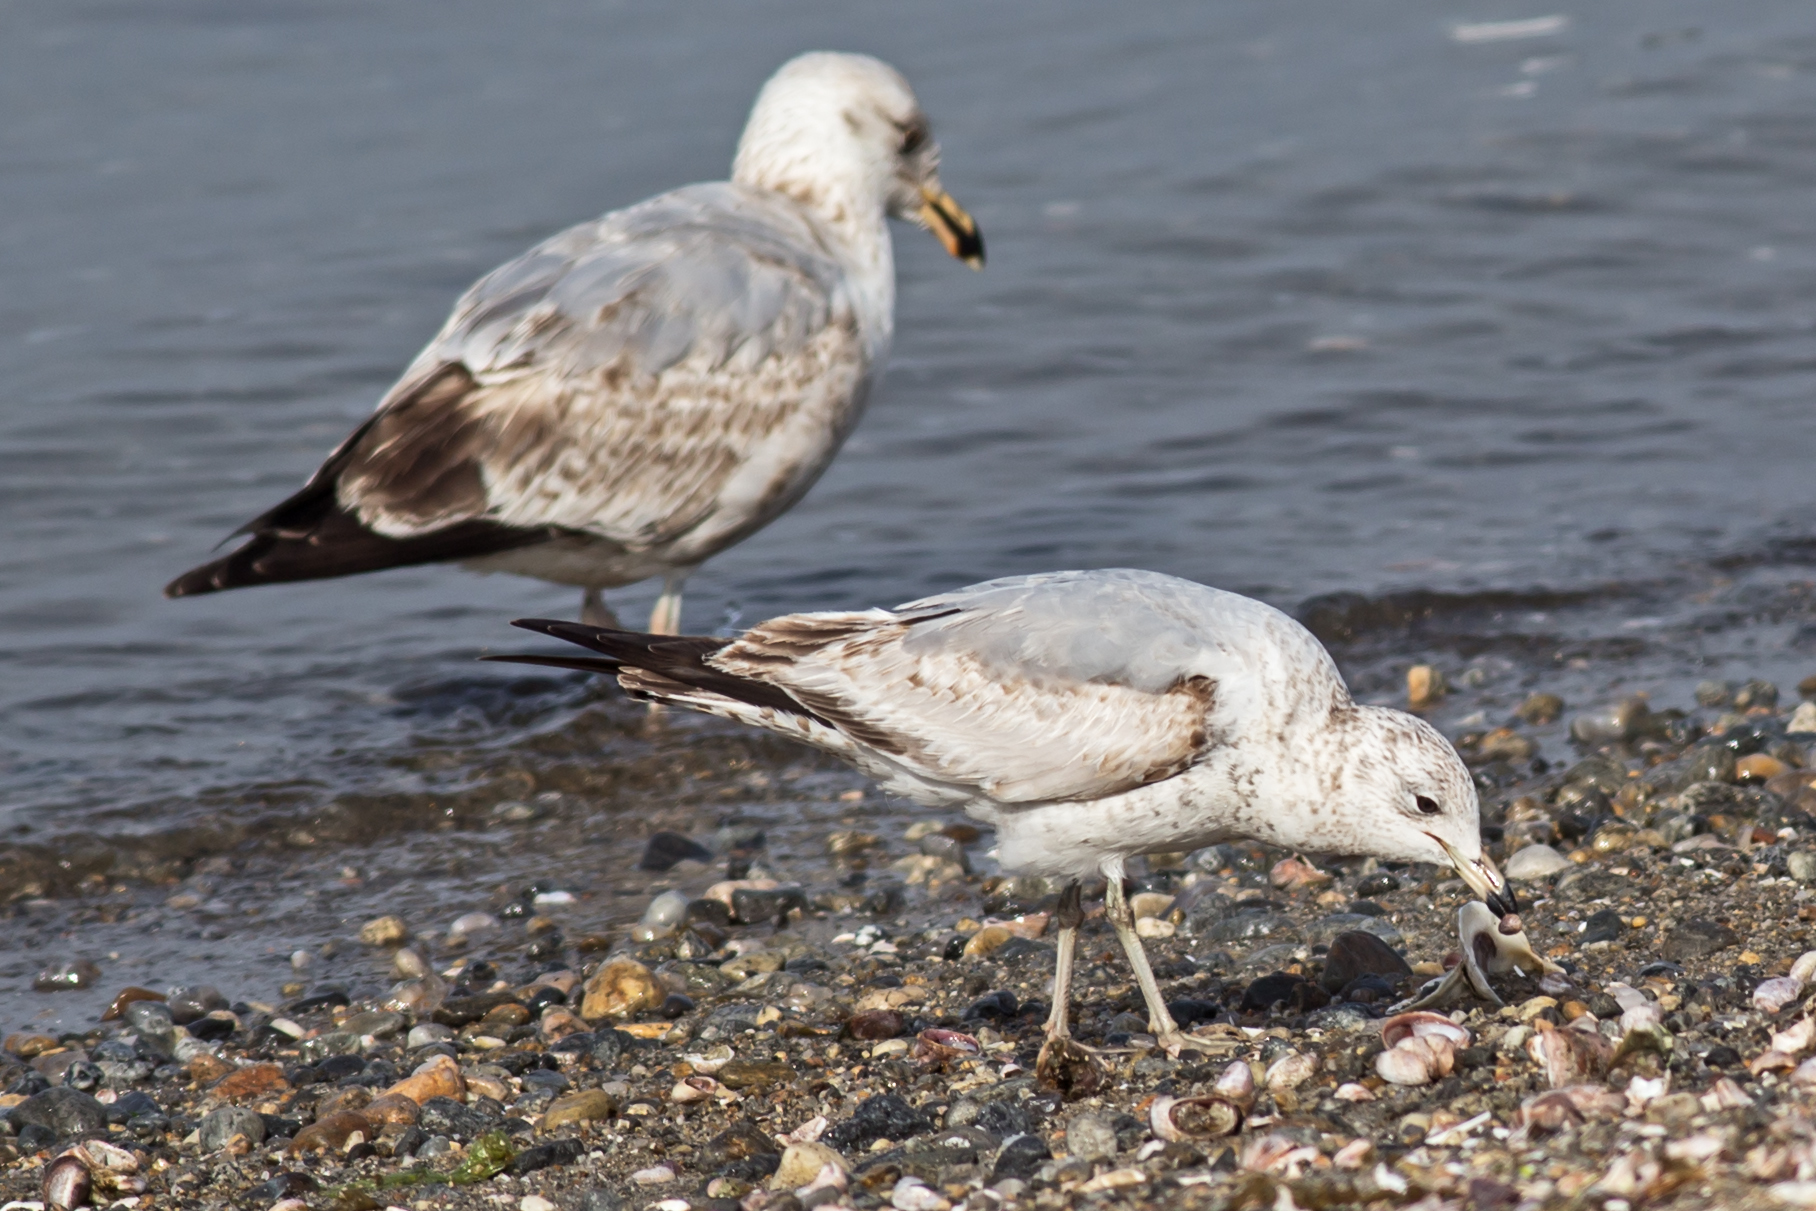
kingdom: Animalia
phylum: Chordata
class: Aves
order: Charadriiformes
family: Laridae
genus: Larus
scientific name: Larus delawarensis
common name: Ring-billed gull
